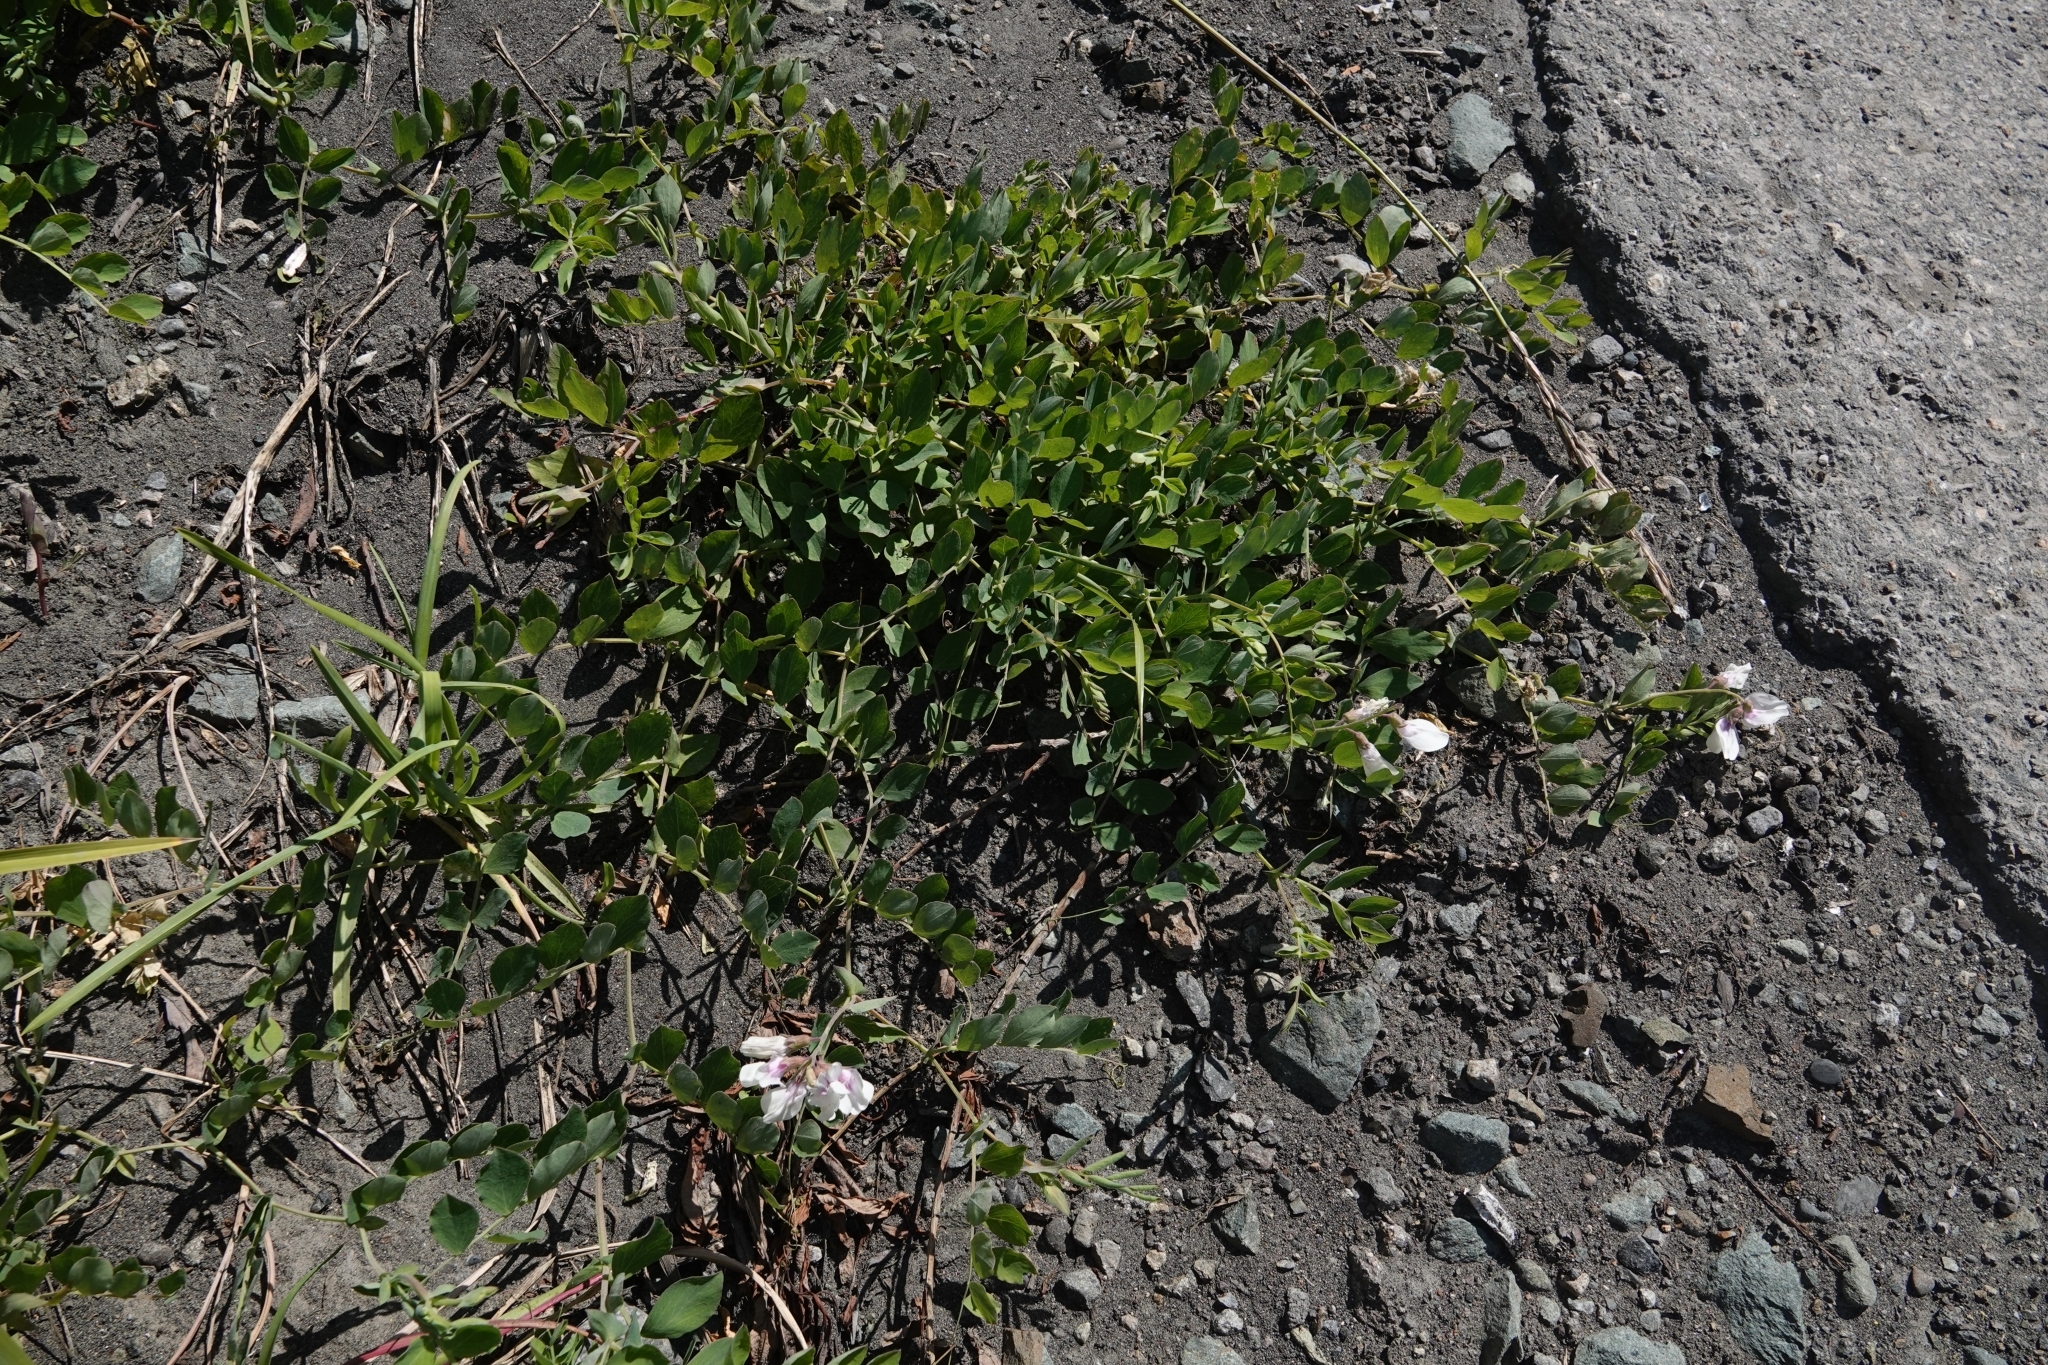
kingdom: Plantae
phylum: Tracheophyta
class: Magnoliopsida
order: Fabales
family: Fabaceae
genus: Lathyrus
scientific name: Lathyrus japonicus
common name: Sea pea
